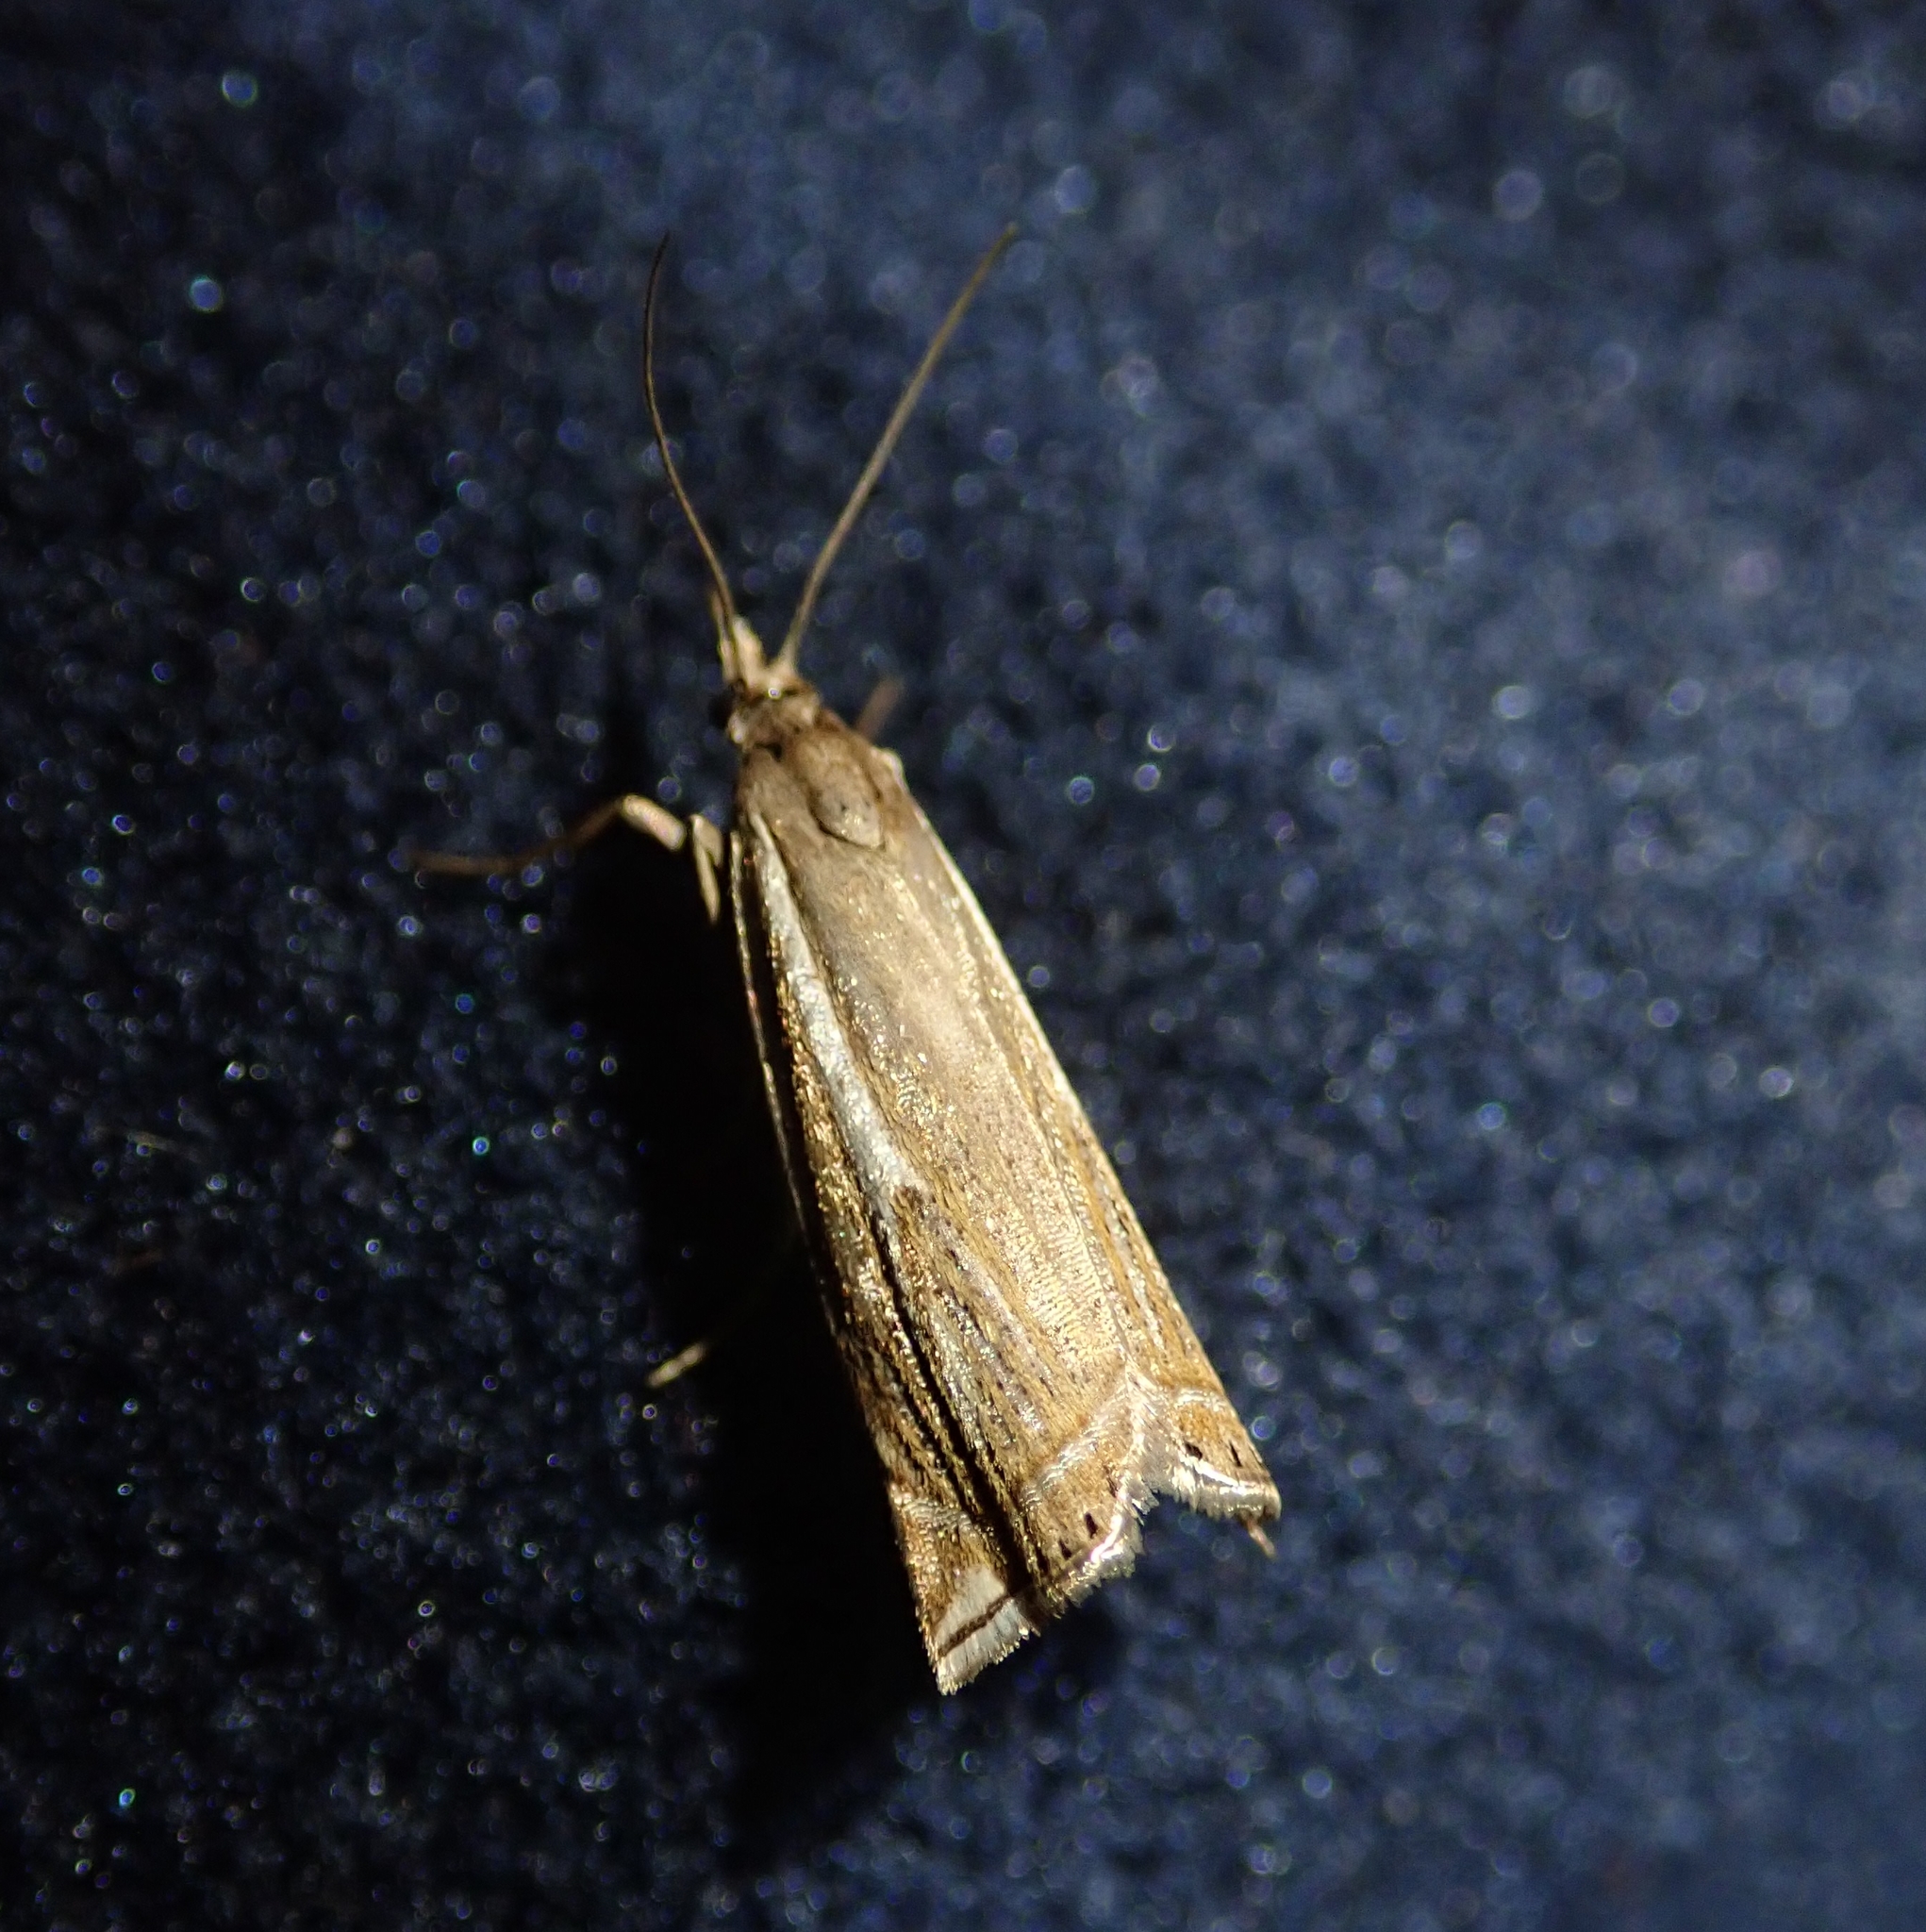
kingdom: Animalia
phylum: Arthropoda
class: Insecta
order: Lepidoptera
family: Crambidae
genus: Crambus
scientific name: Crambus nemorella
